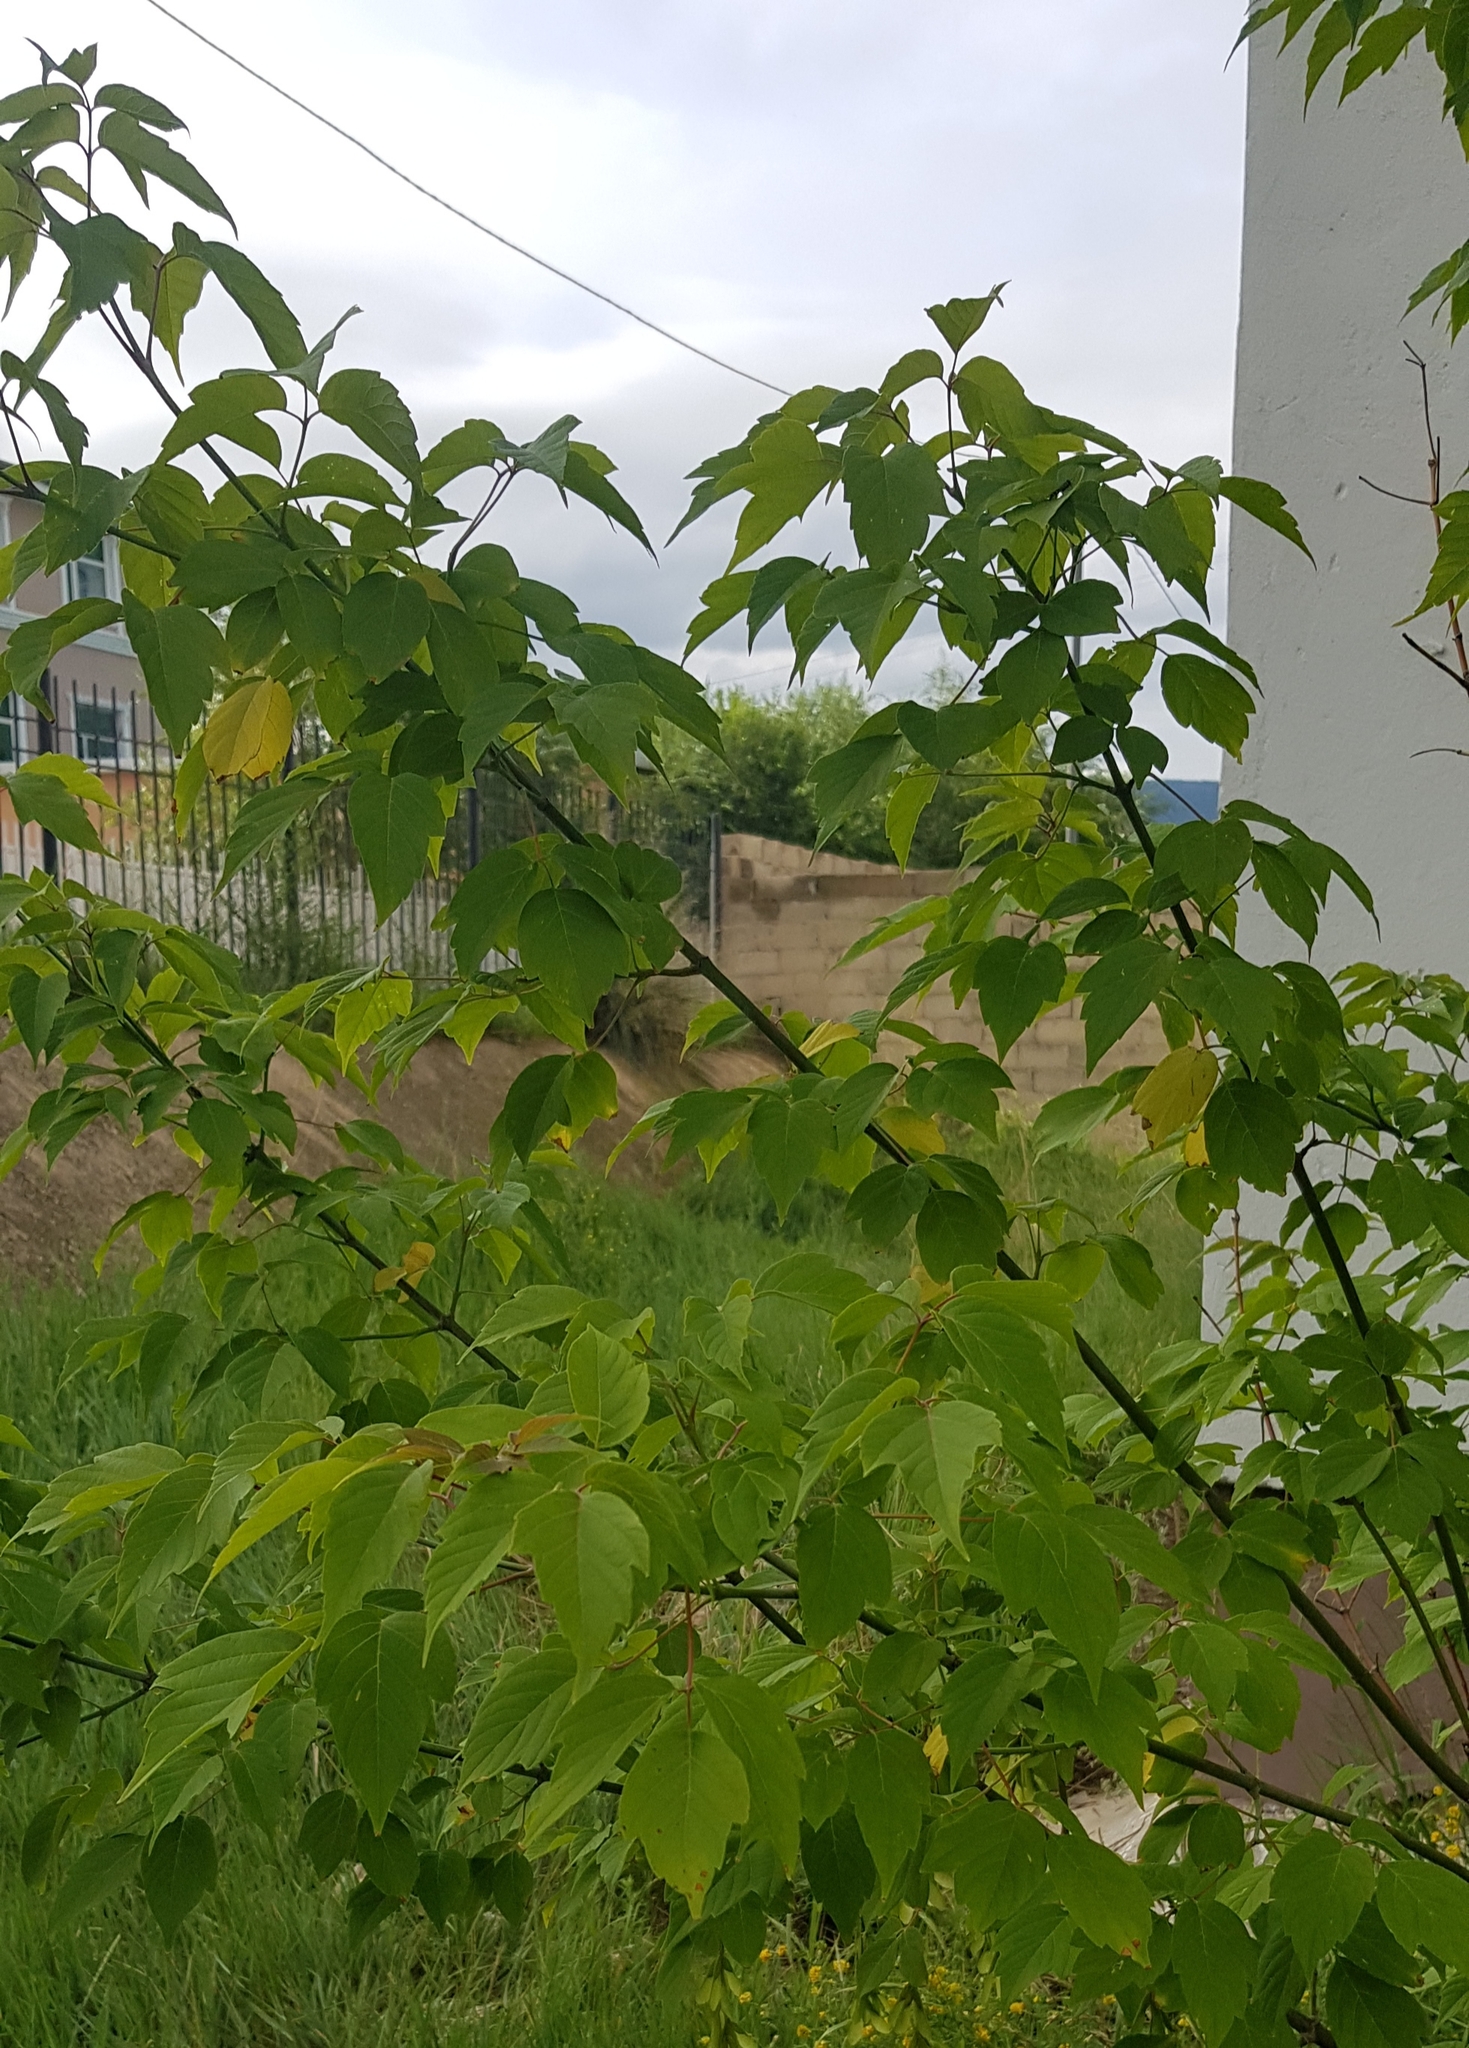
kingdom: Plantae
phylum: Tracheophyta
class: Magnoliopsida
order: Rosales
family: Rosaceae
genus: Prunus
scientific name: Prunus padus
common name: Bird cherry
